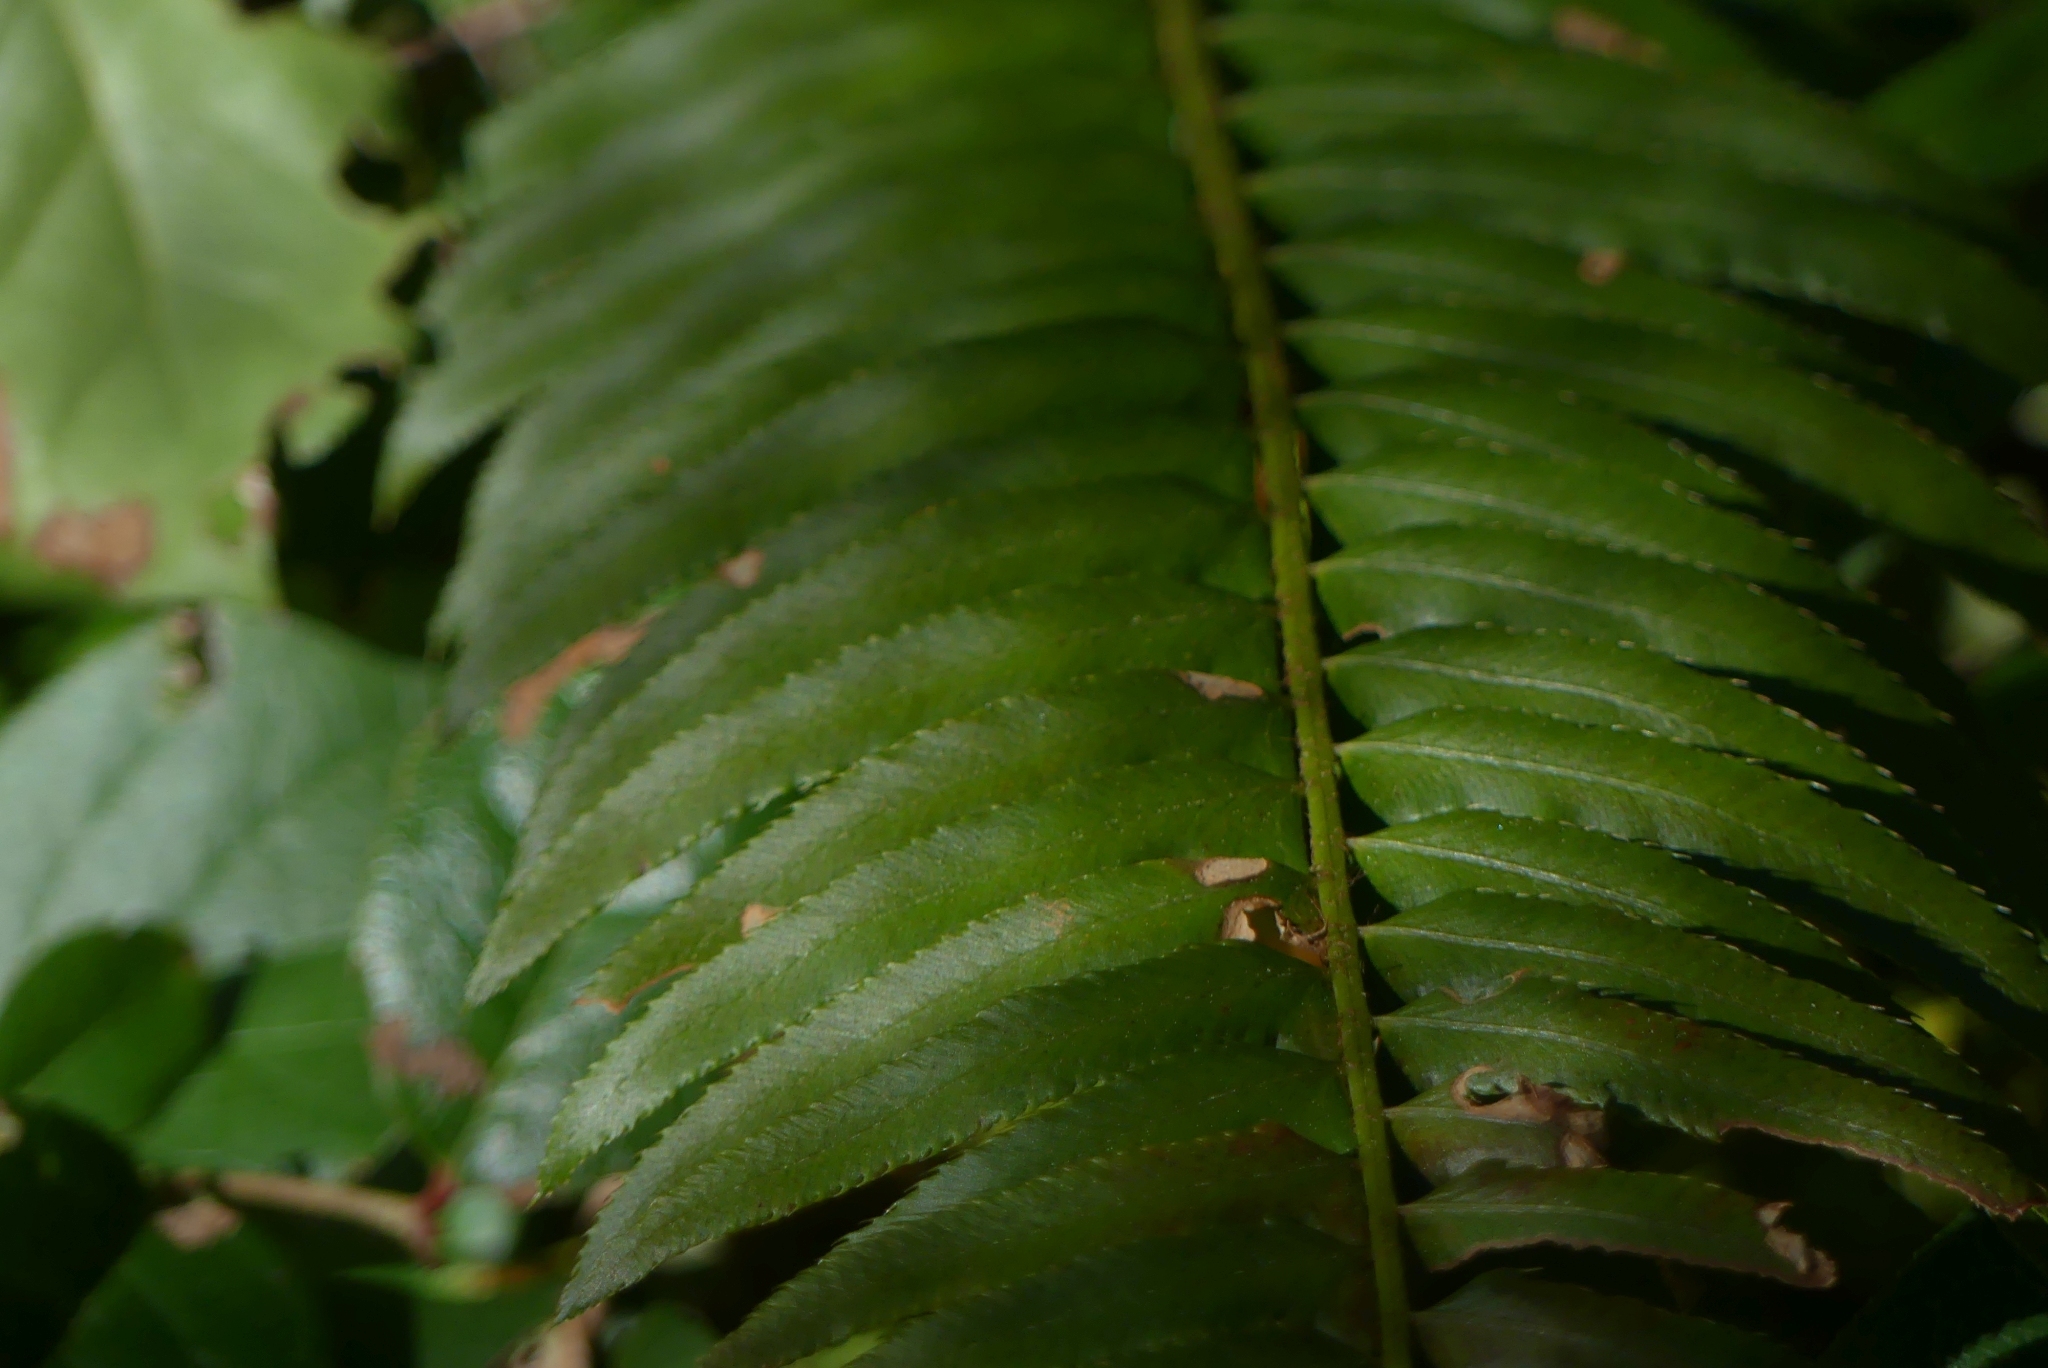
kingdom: Plantae
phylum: Tracheophyta
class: Polypodiopsida
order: Polypodiales
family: Dryopteridaceae
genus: Polystichum
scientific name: Polystichum munitum
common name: Western sword-fern
